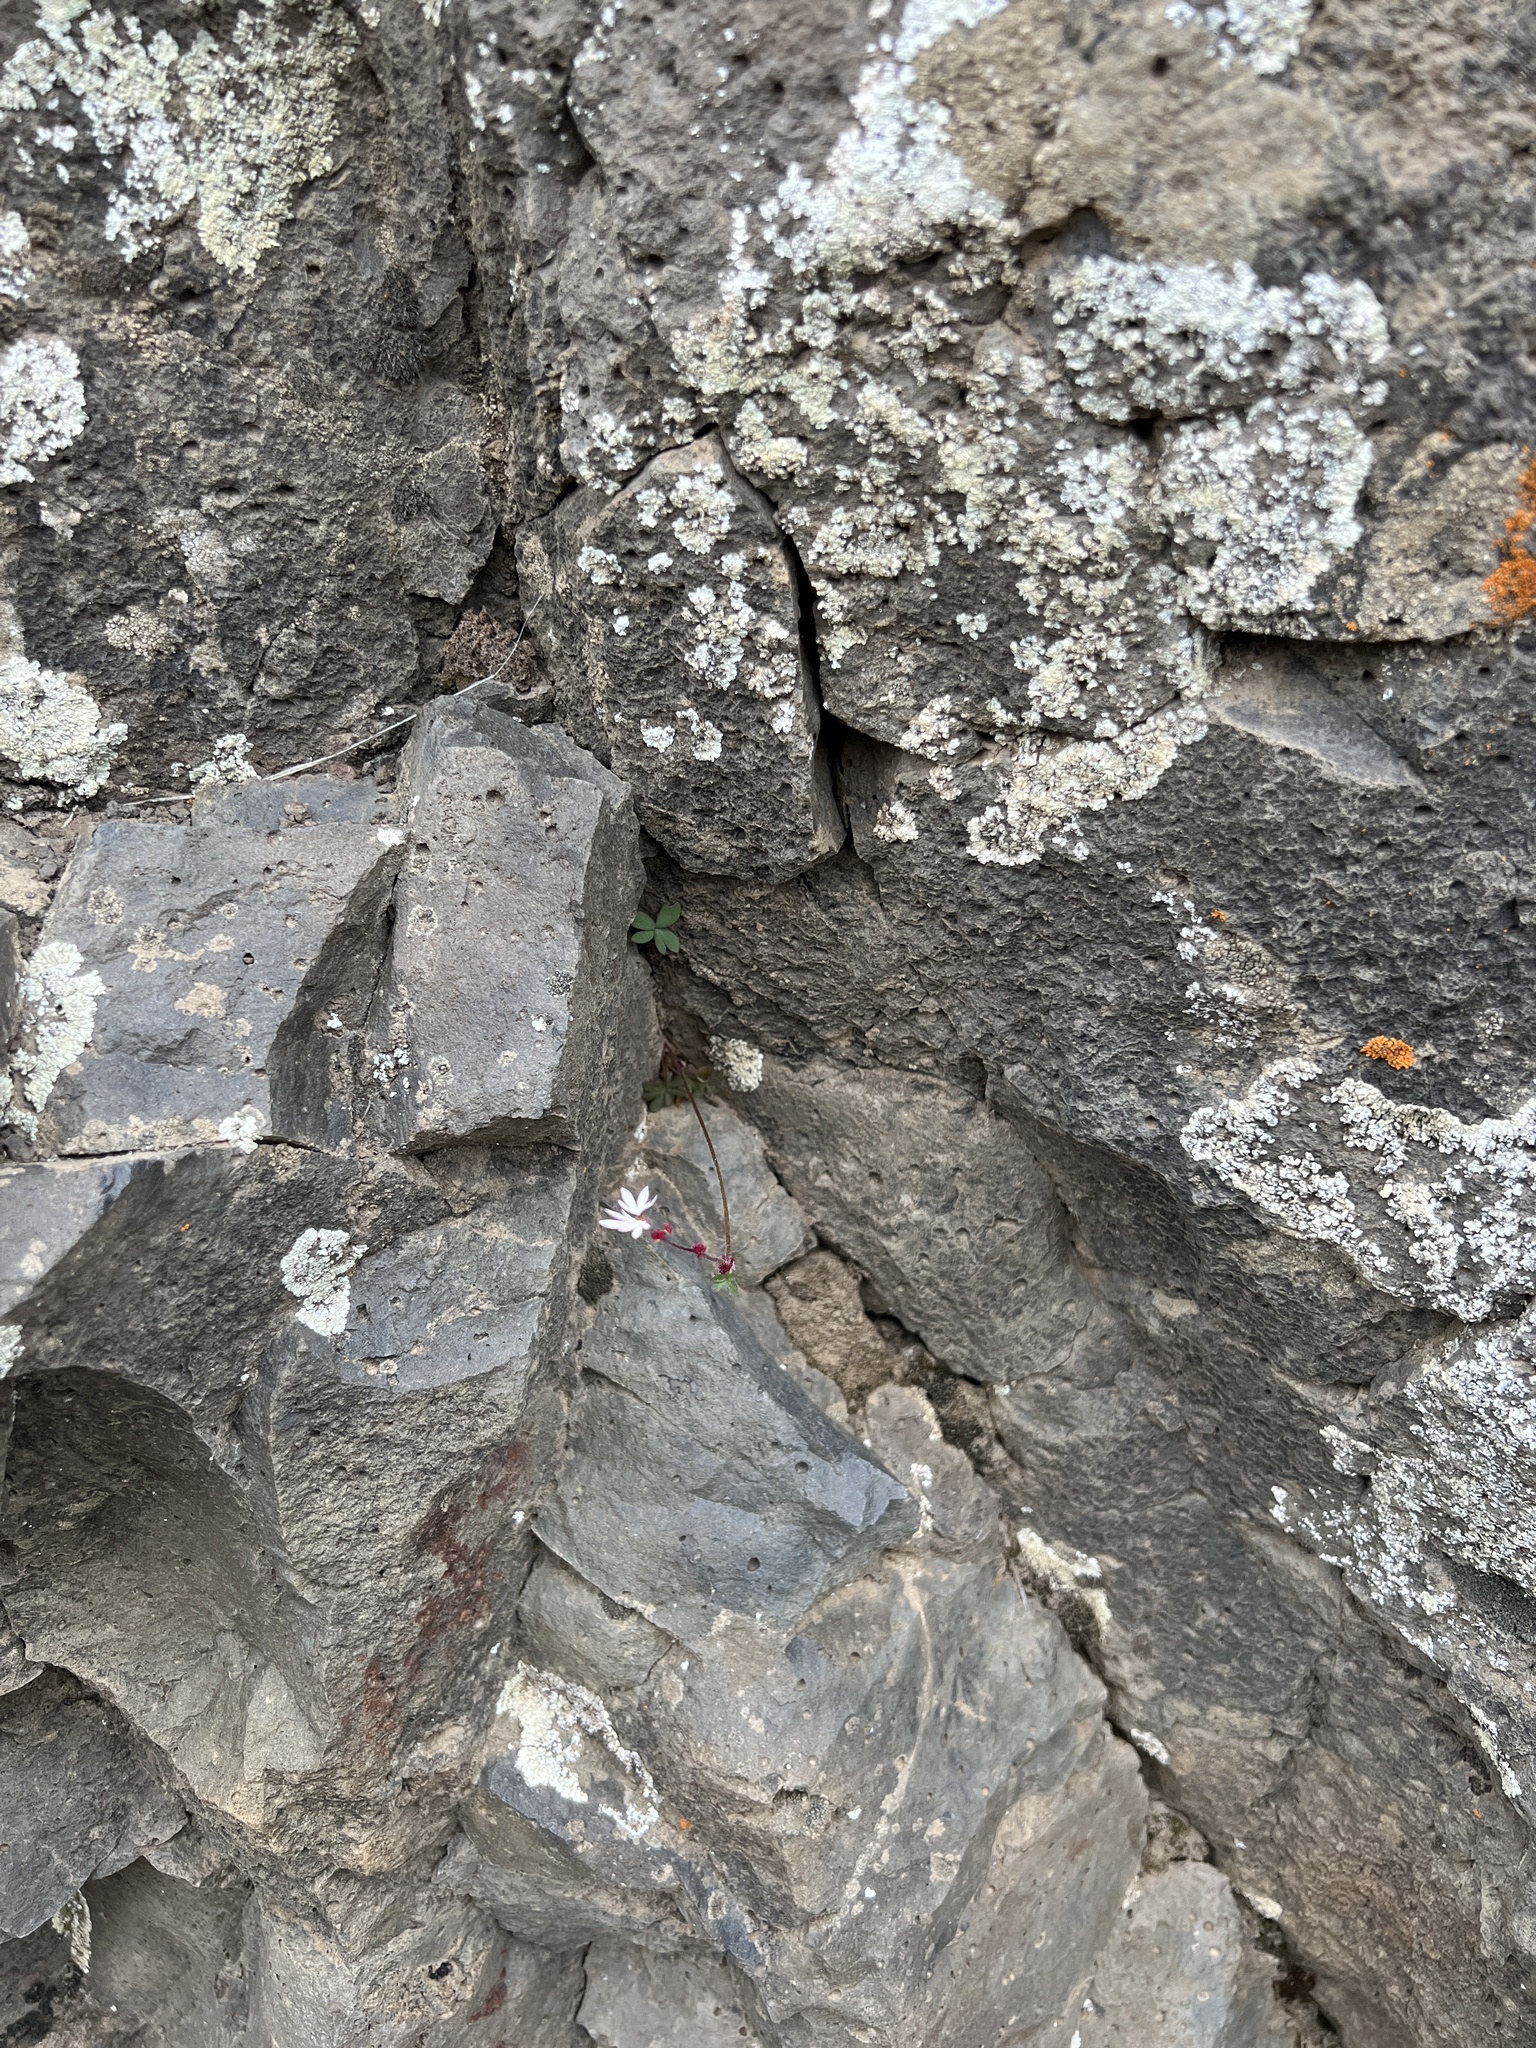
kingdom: Plantae
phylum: Tracheophyta
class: Magnoliopsida
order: Saxifragales
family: Saxifragaceae
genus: Lithophragma
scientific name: Lithophragma glabrum
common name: Bulbous prairie-star
